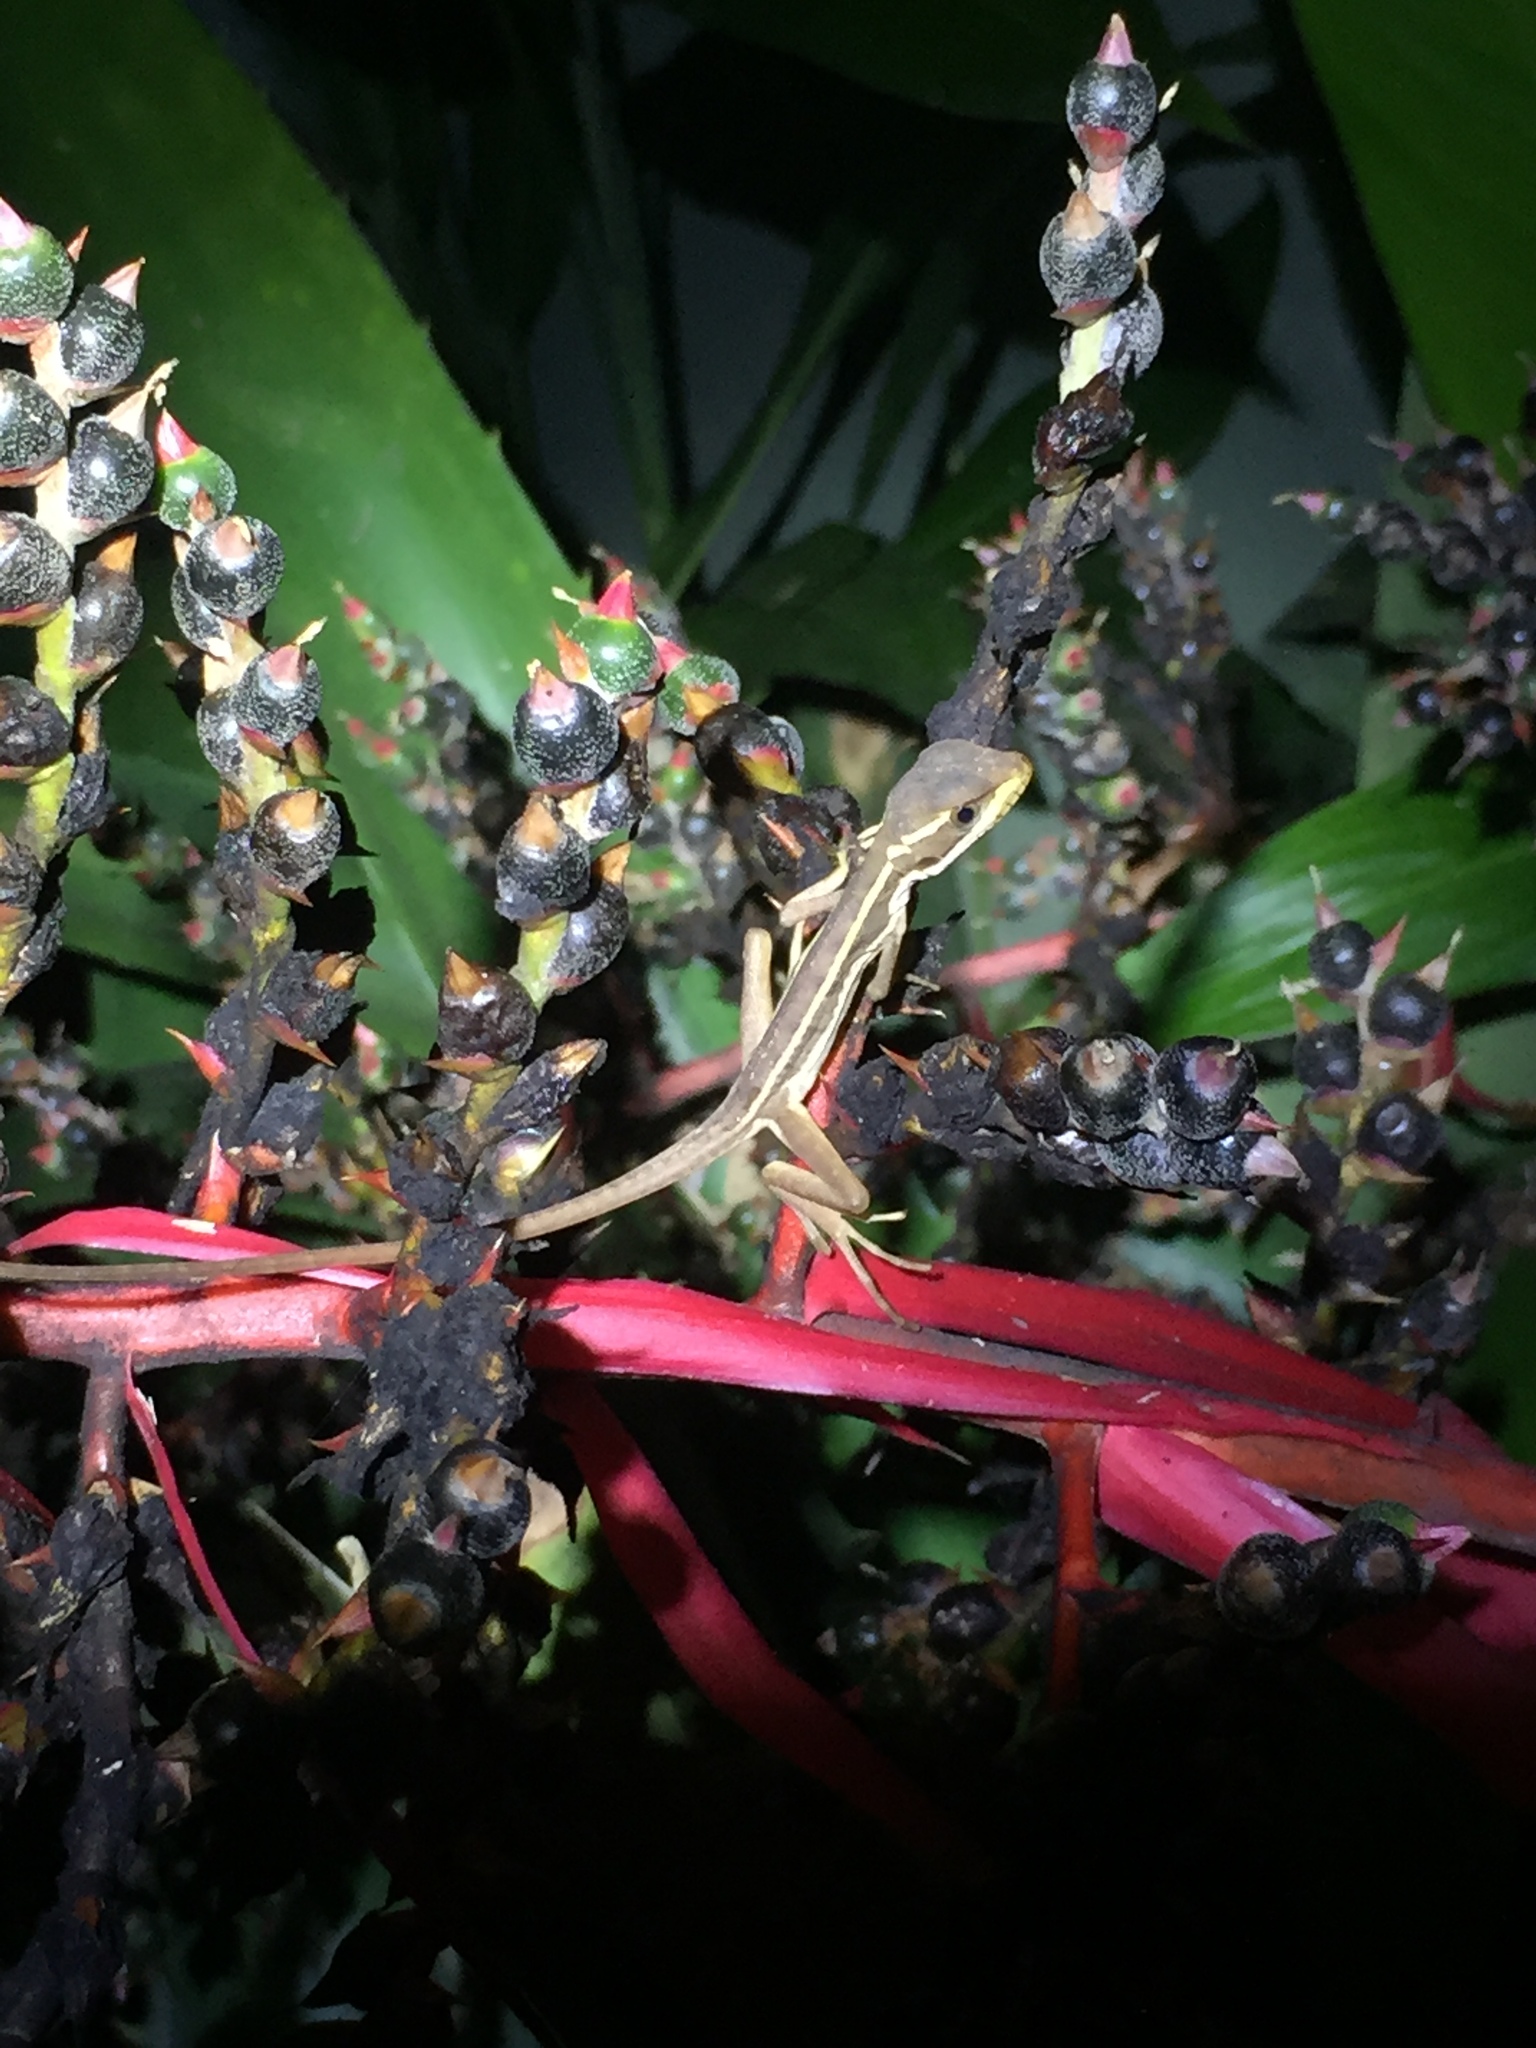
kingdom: Animalia
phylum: Chordata
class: Squamata
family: Corytophanidae
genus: Basiliscus
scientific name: Basiliscus vittatus
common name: Brown basilisk
